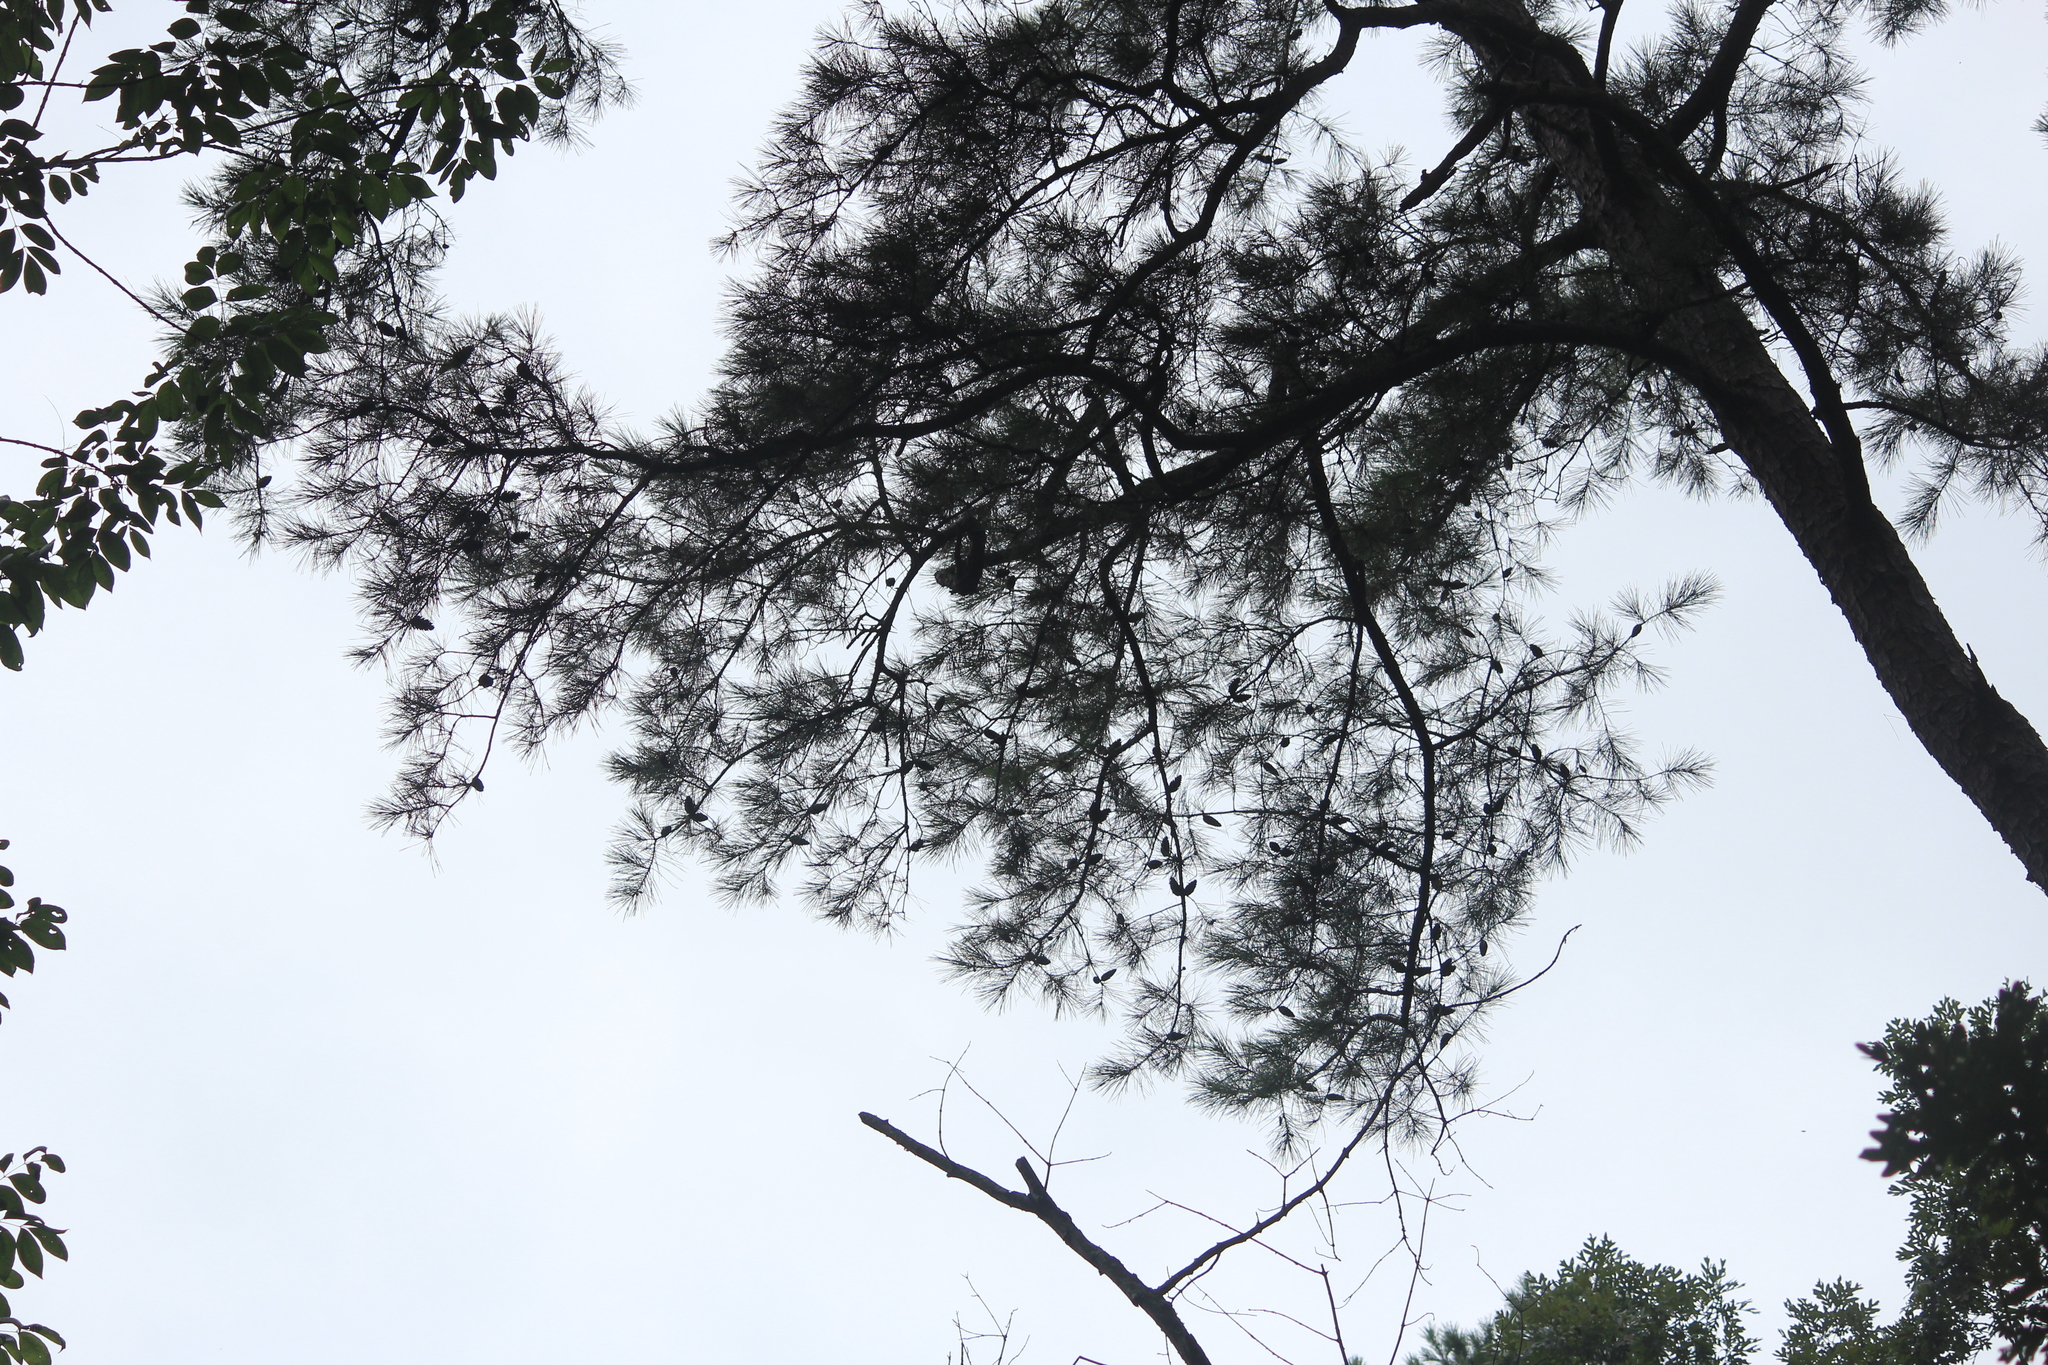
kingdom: Plantae
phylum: Tracheophyta
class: Pinopsida
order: Pinales
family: Pinaceae
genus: Pinus
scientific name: Pinus echinata
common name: Shortleaf pine
